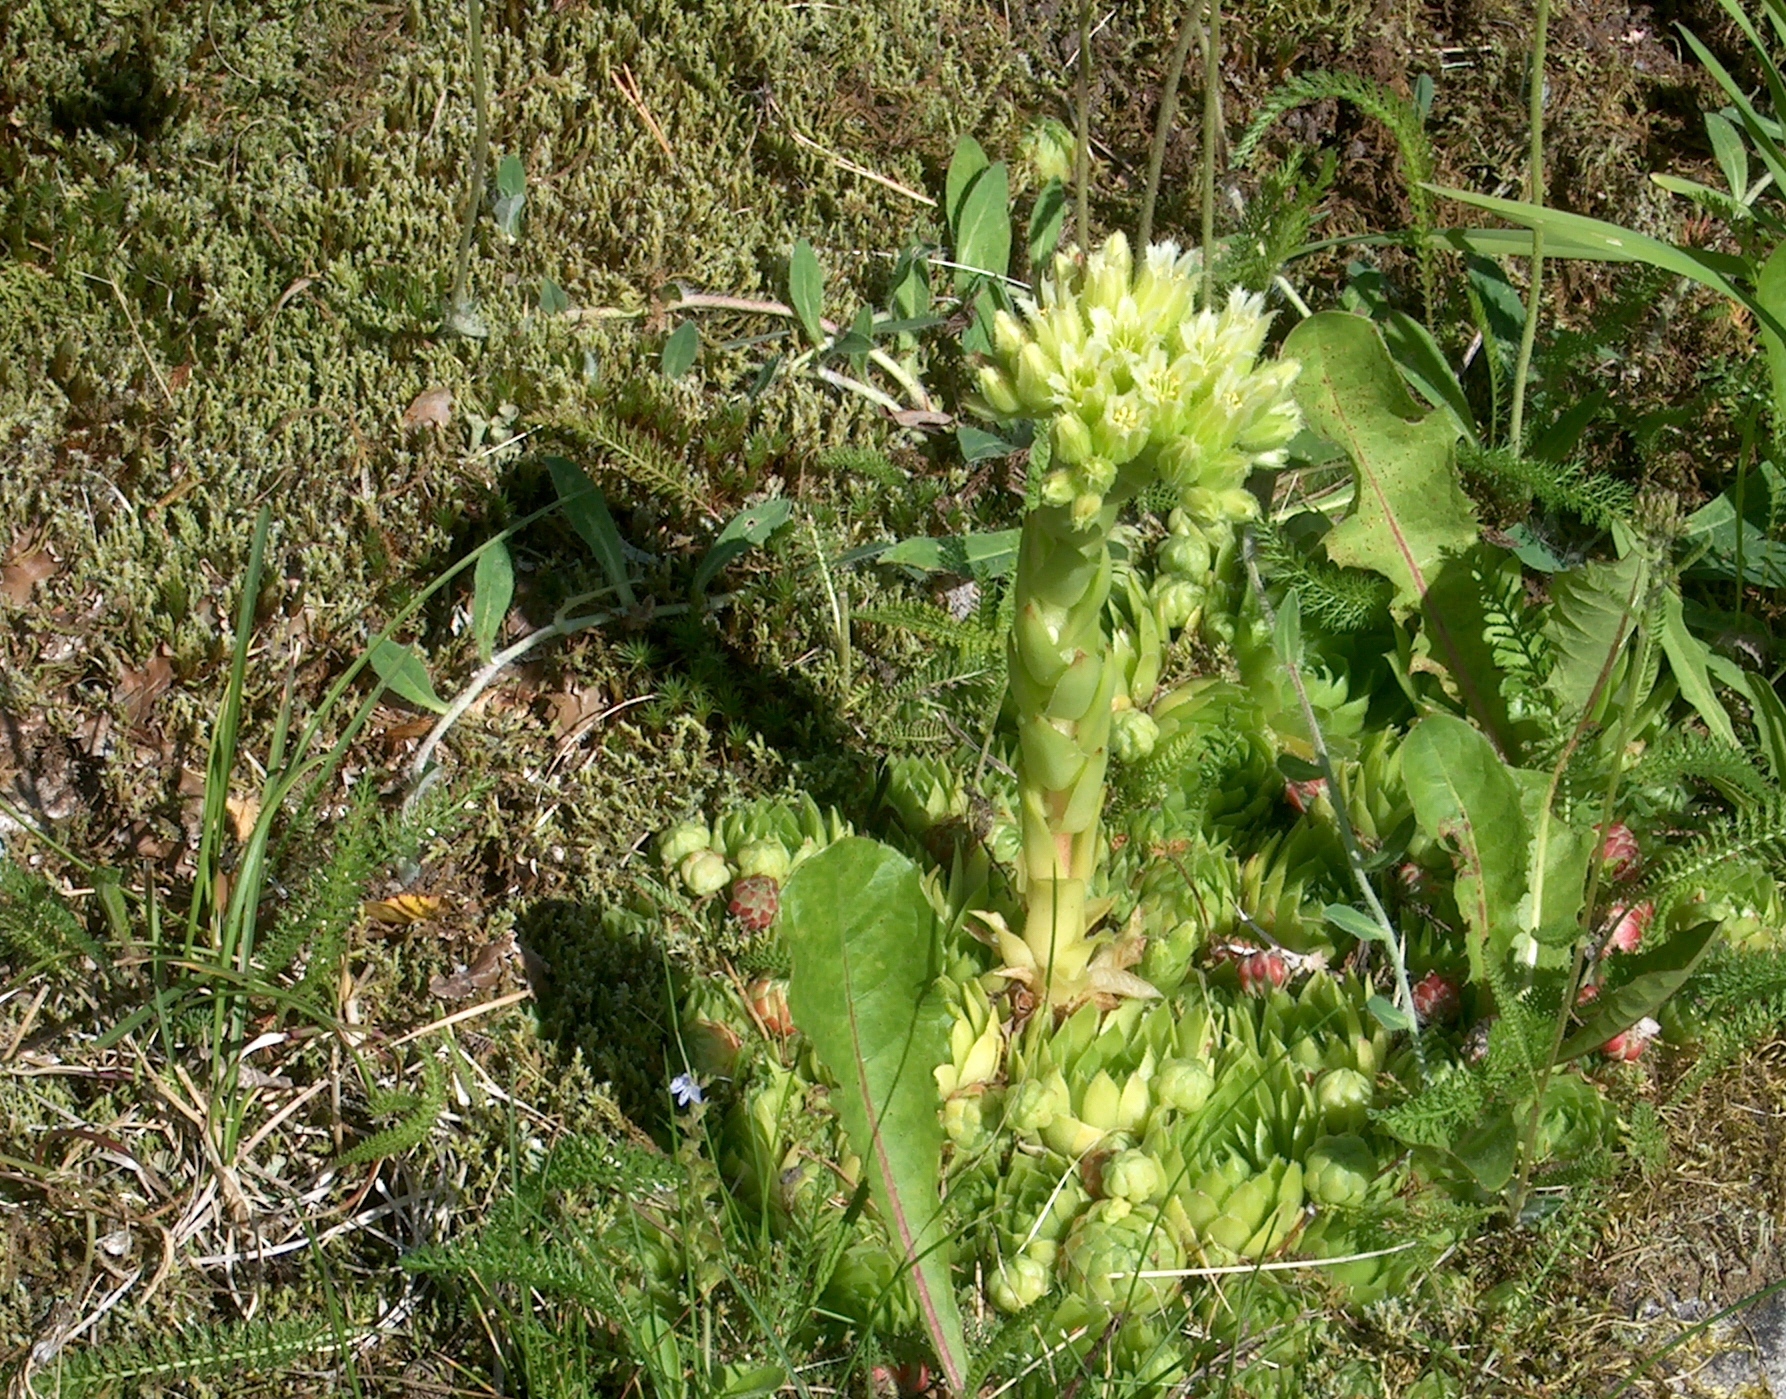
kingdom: Plantae
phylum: Tracheophyta
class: Magnoliopsida
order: Saxifragales
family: Crassulaceae
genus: Sempervivum
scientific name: Sempervivum globiferum
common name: Rolling hen-and-chicks
